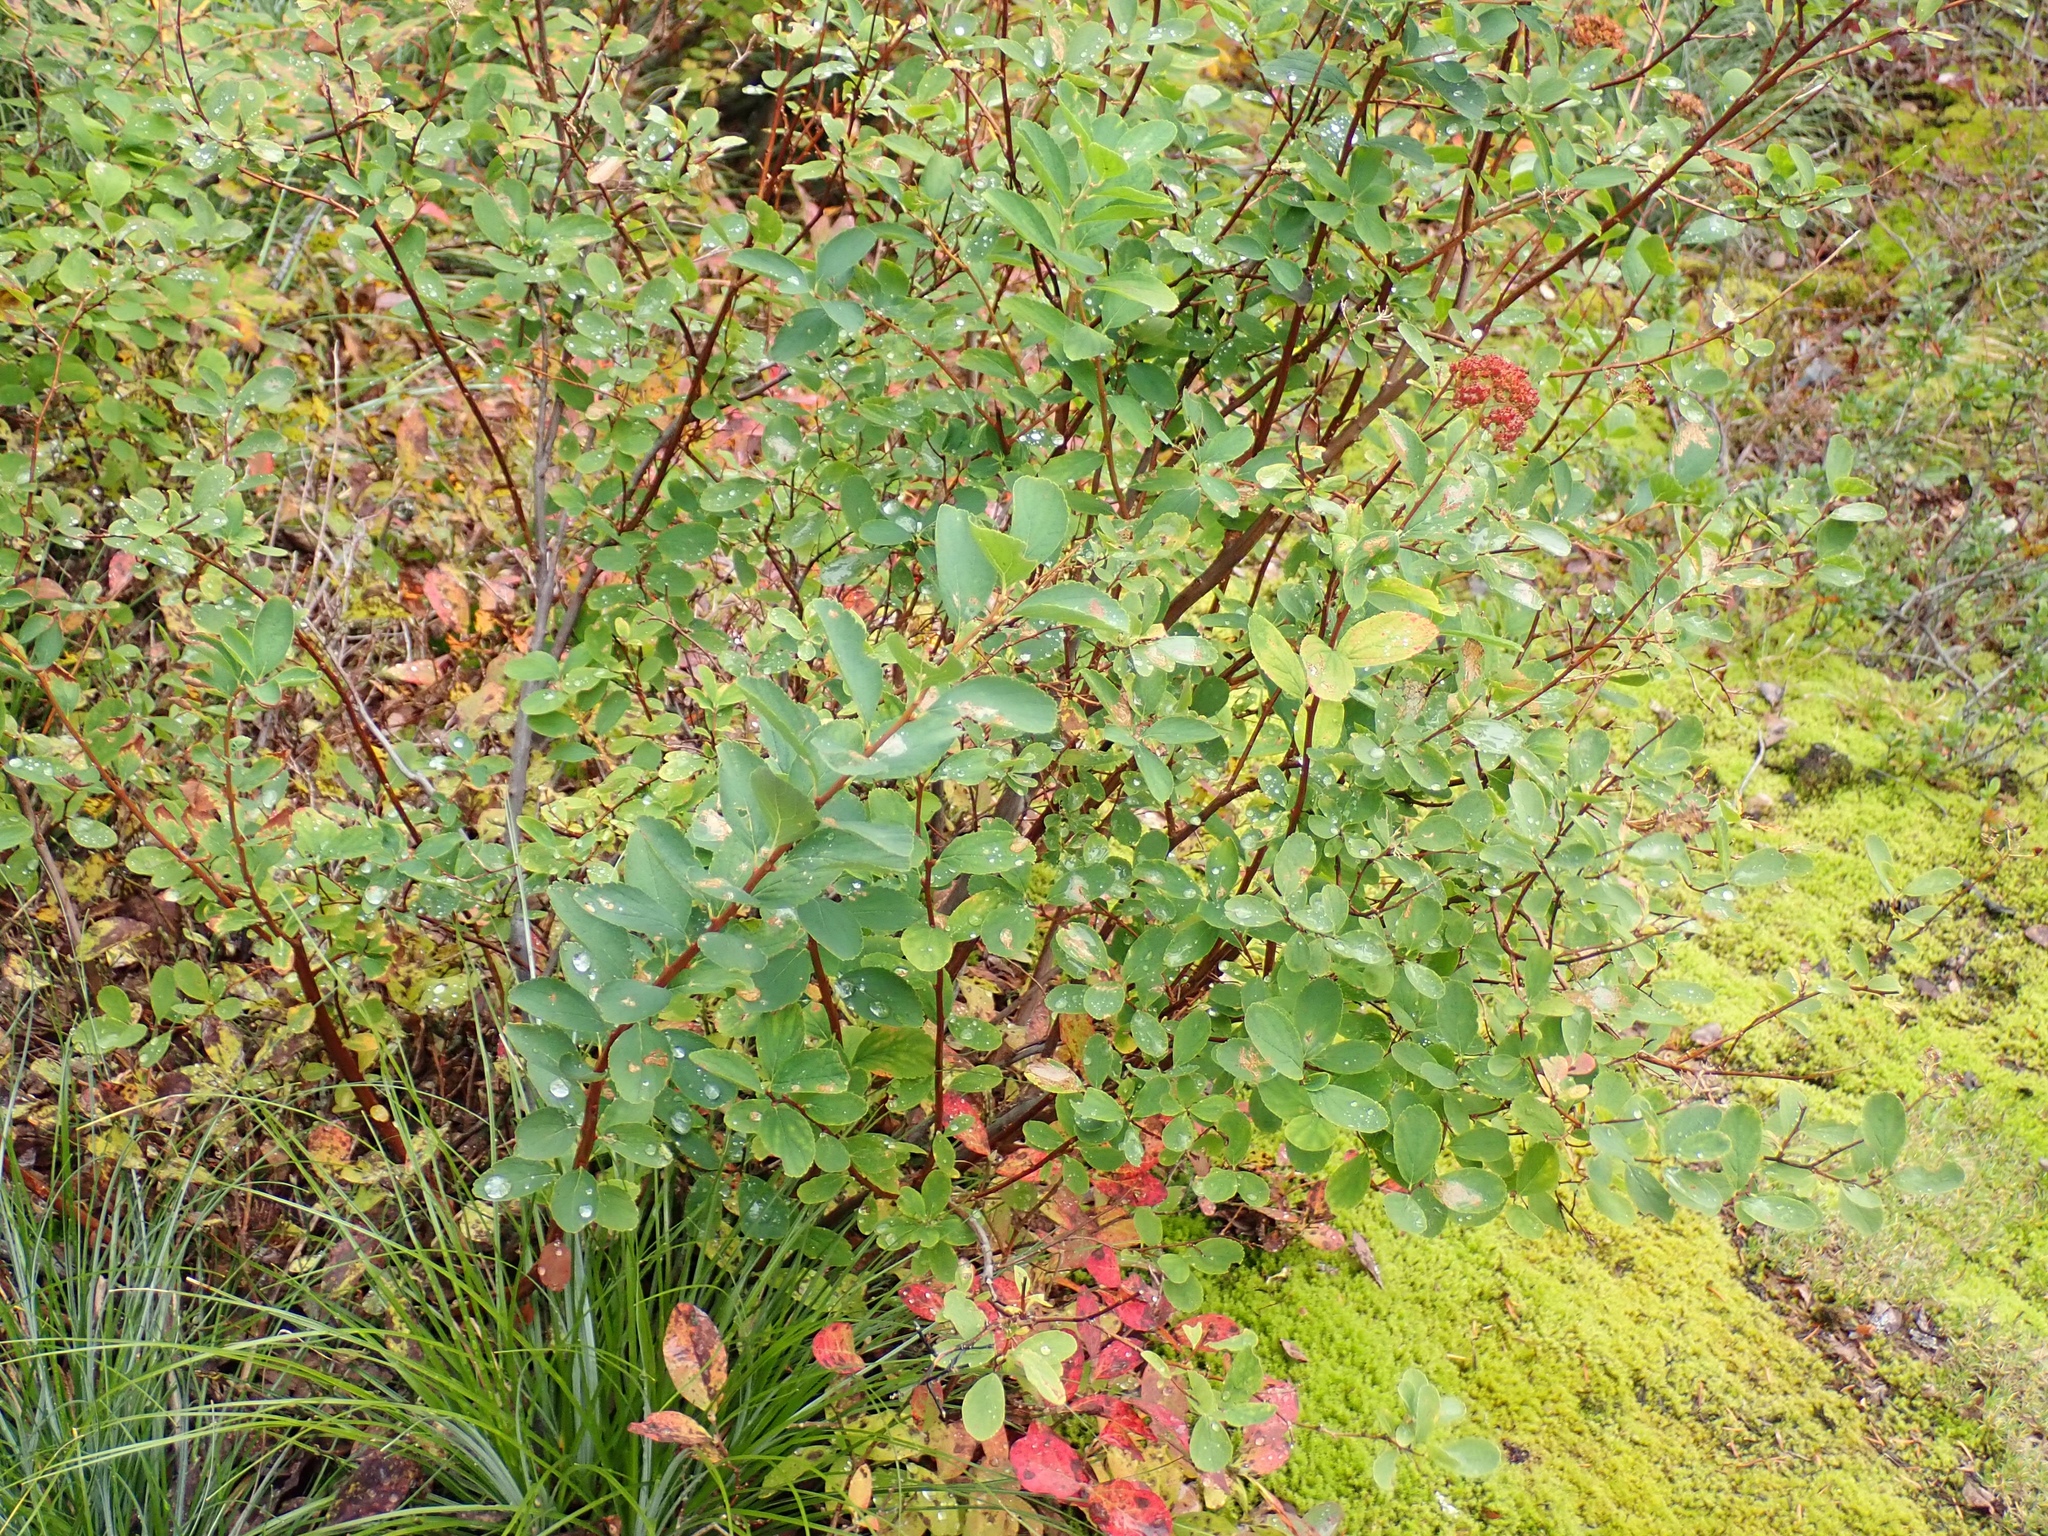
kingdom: Plantae
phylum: Tracheophyta
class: Magnoliopsida
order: Rosales
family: Rosaceae
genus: Spiraea
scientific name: Spiraea splendens
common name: Subalpine meadowsweet
